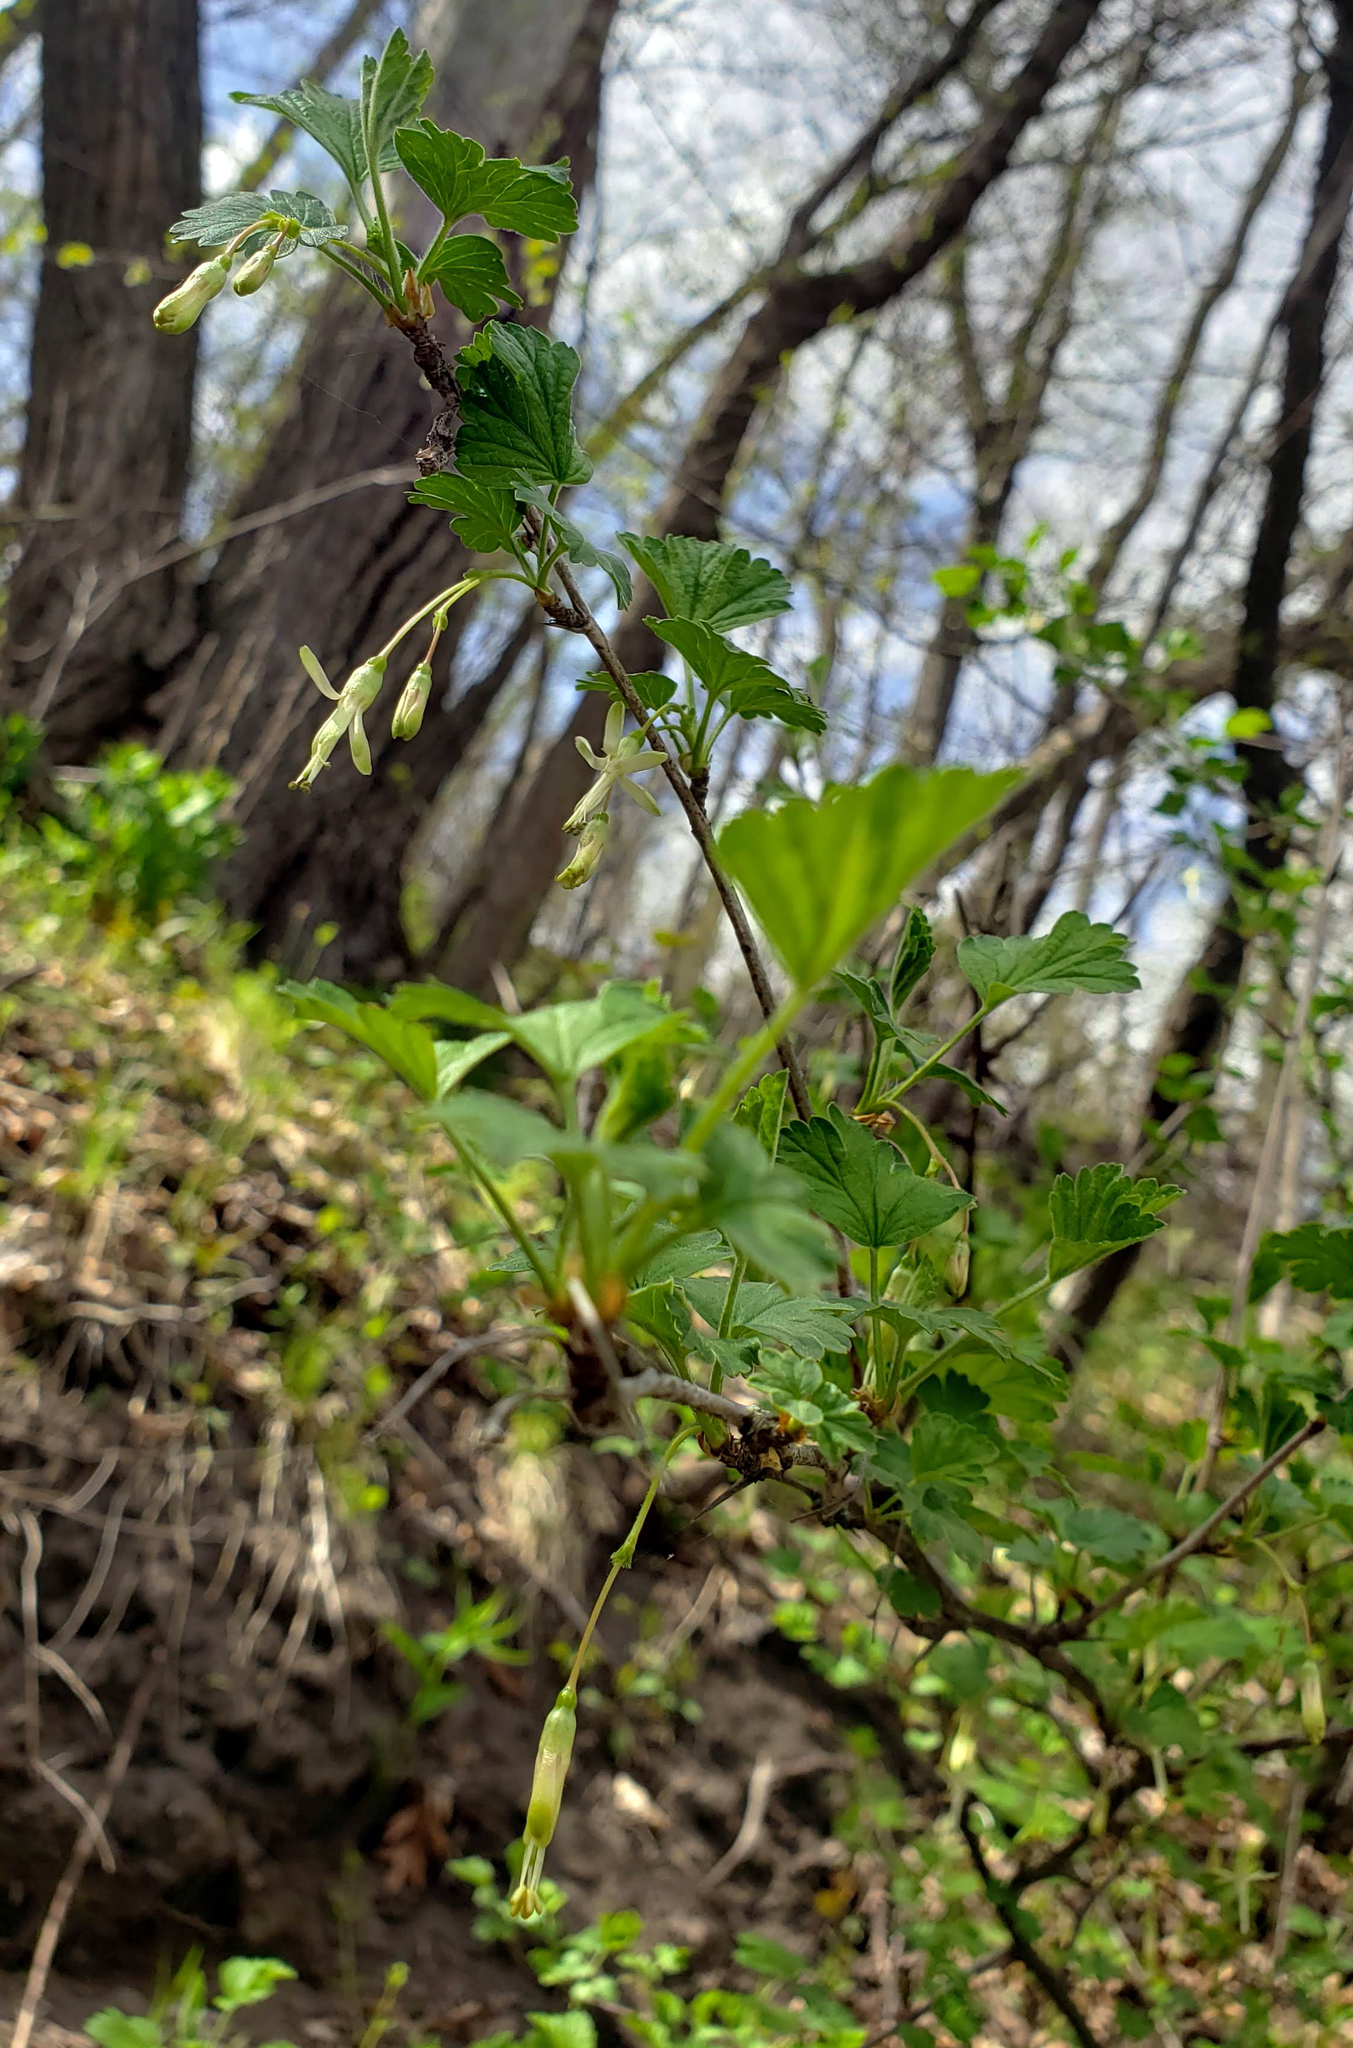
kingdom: Plantae
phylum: Tracheophyta
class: Magnoliopsida
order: Saxifragales
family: Grossulariaceae
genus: Ribes
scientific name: Ribes missouriense
